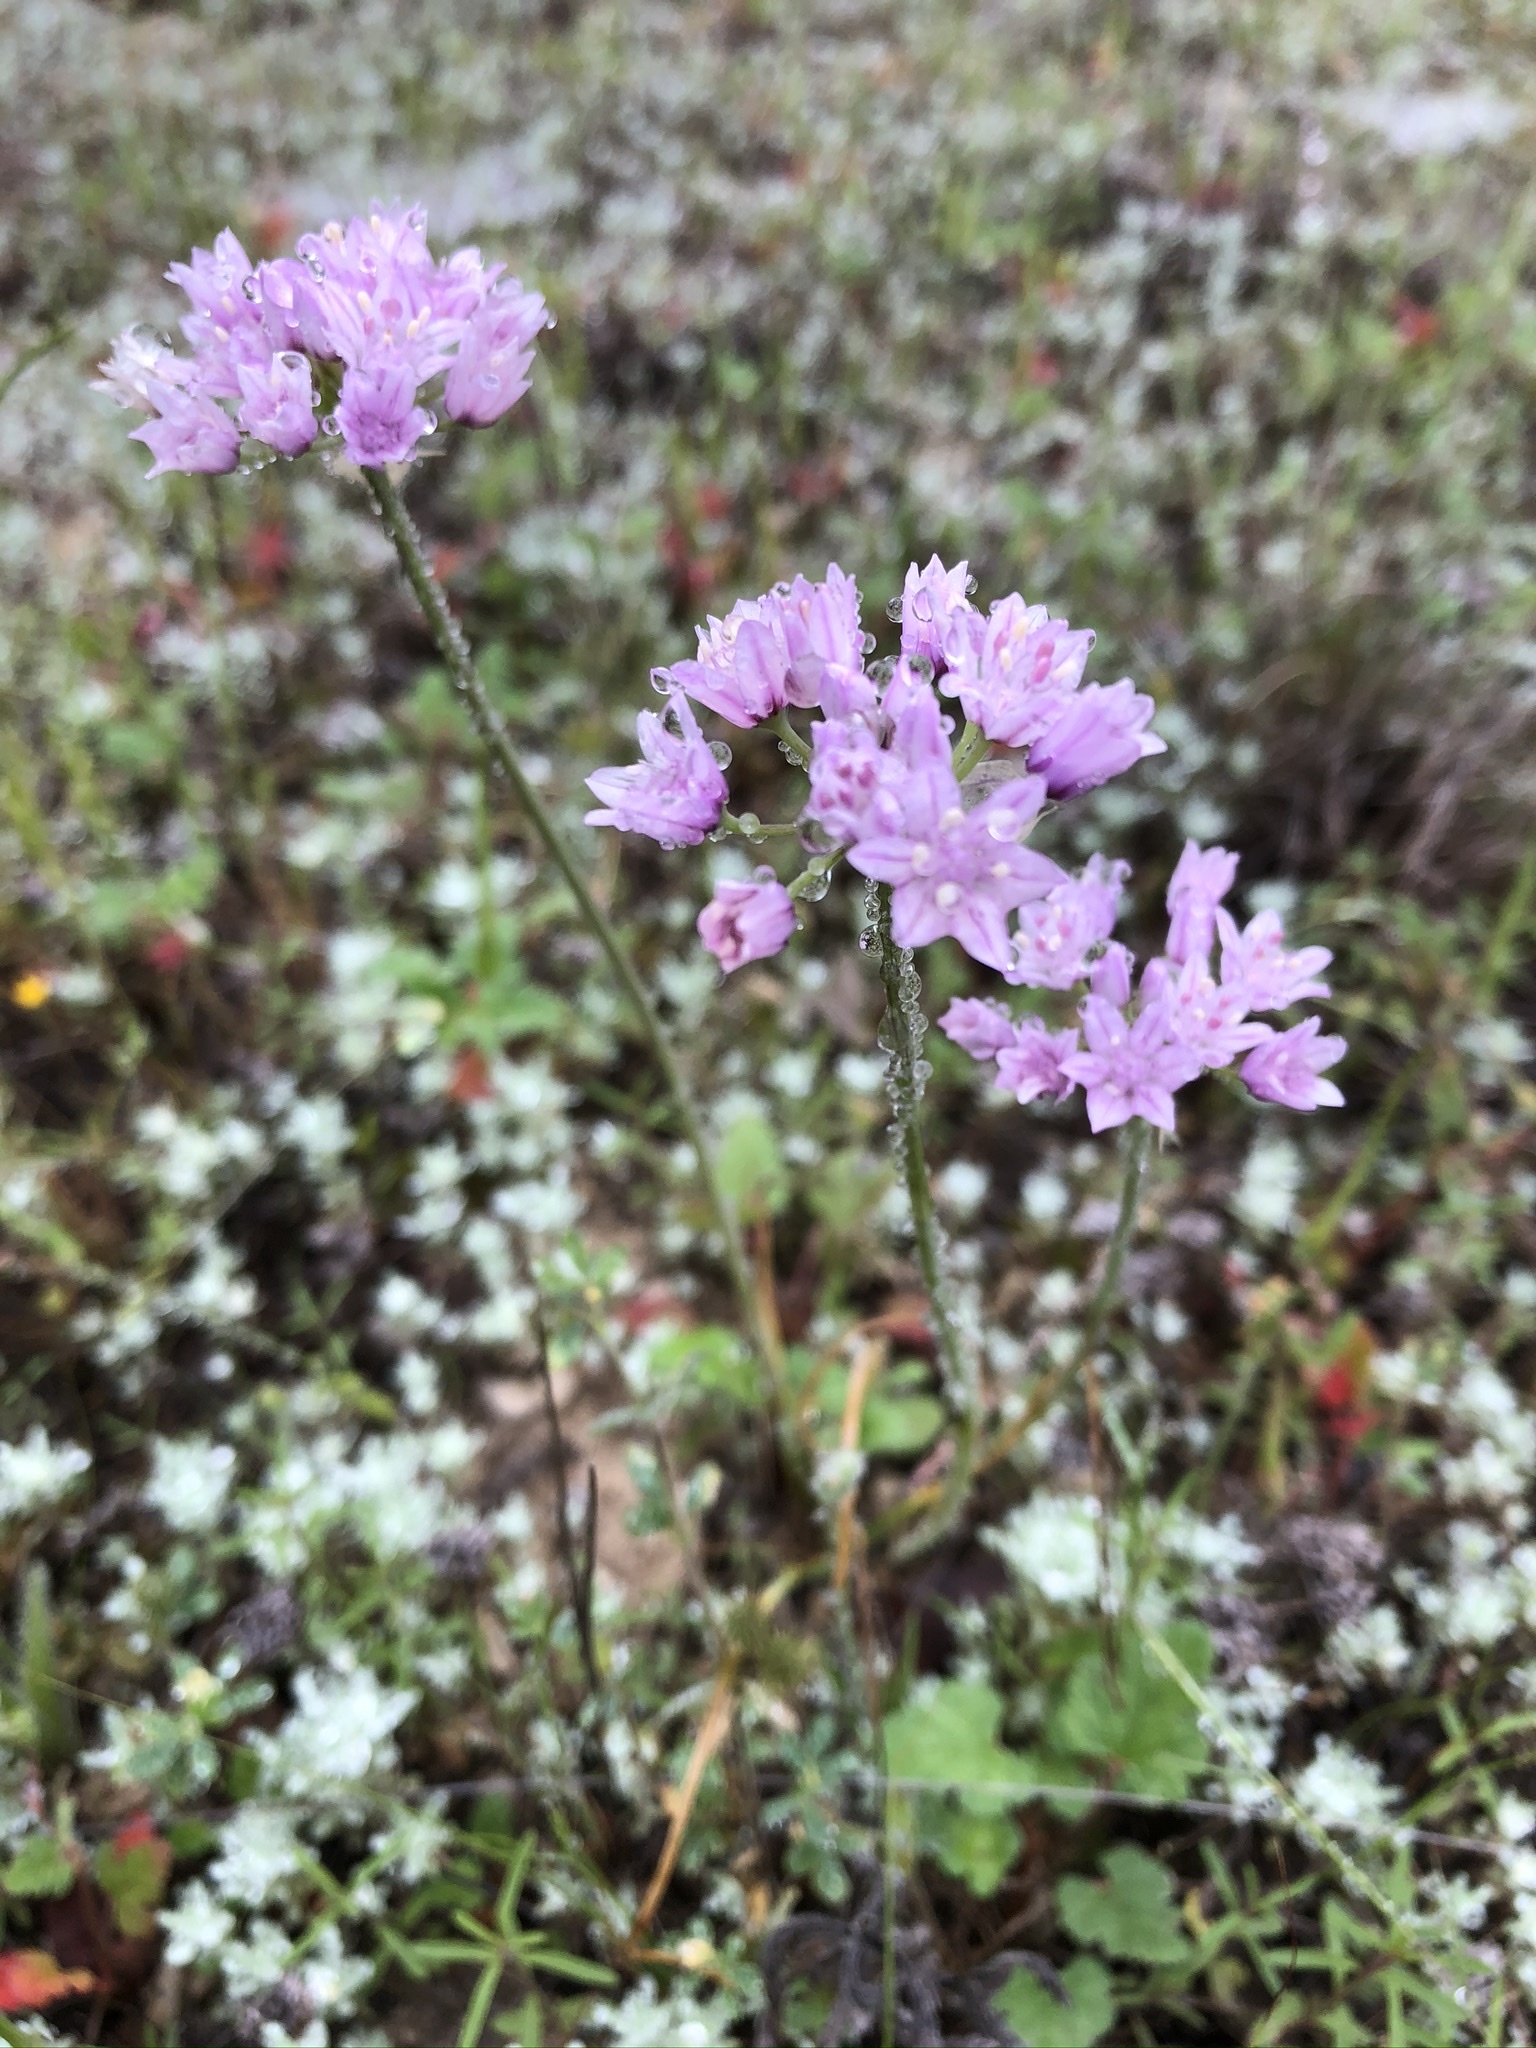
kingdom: Plantae
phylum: Tracheophyta
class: Liliopsida
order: Asparagales
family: Amaryllidaceae
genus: Allium
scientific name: Allium drummondii
